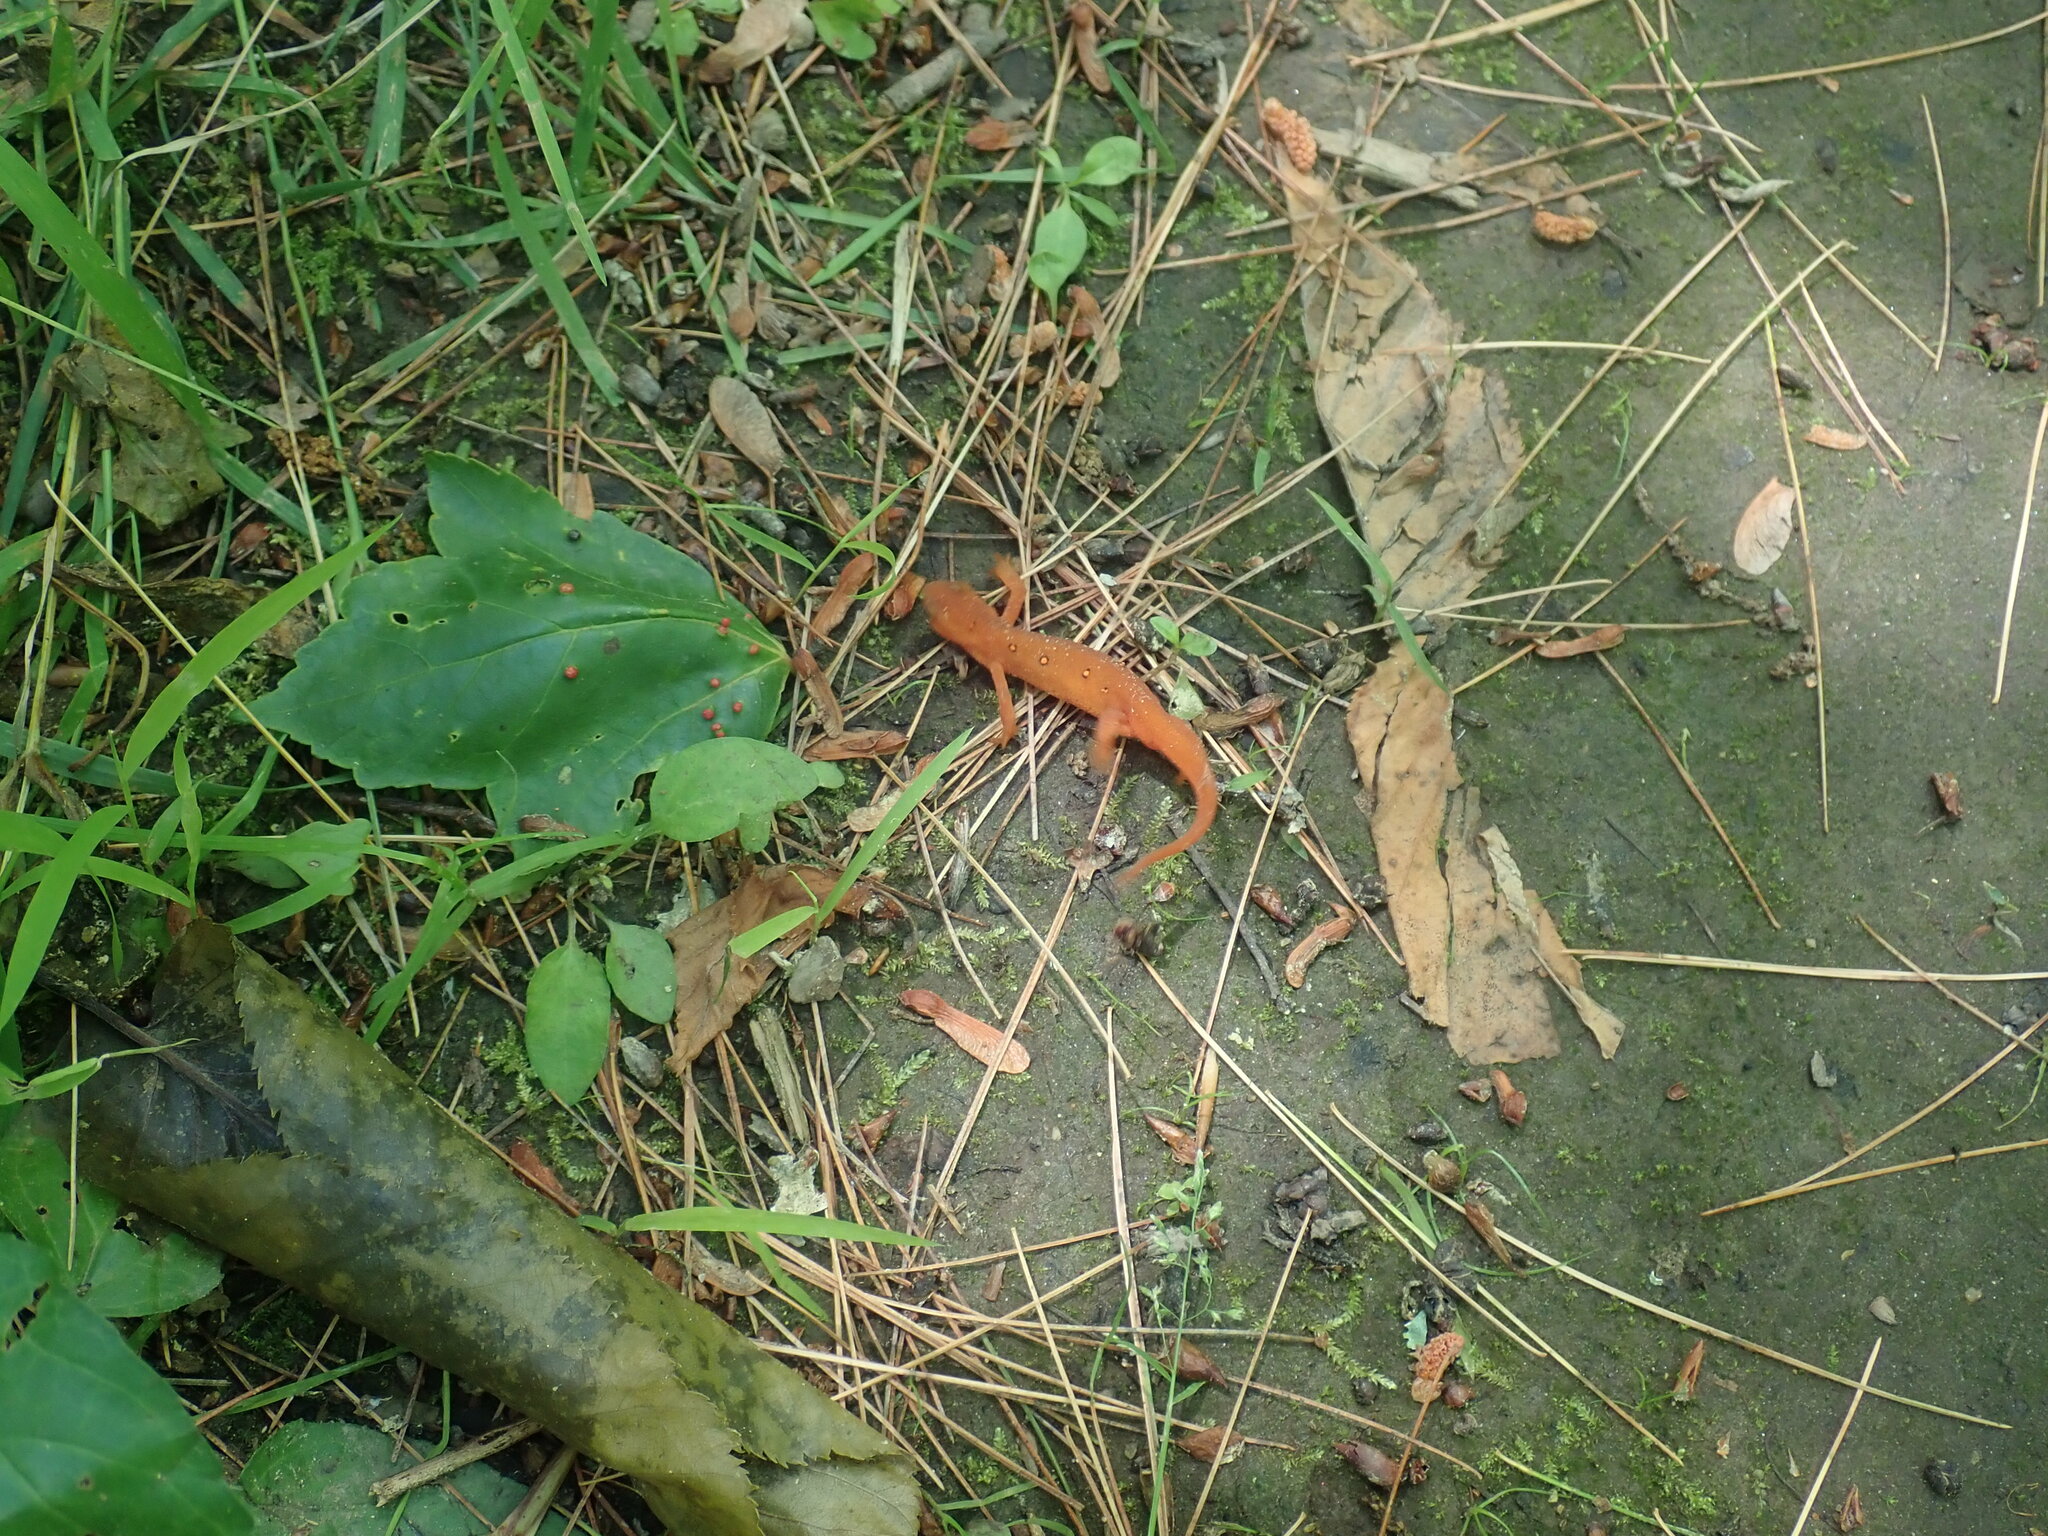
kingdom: Animalia
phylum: Chordata
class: Amphibia
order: Caudata
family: Salamandridae
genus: Notophthalmus
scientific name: Notophthalmus viridescens
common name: Eastern newt
